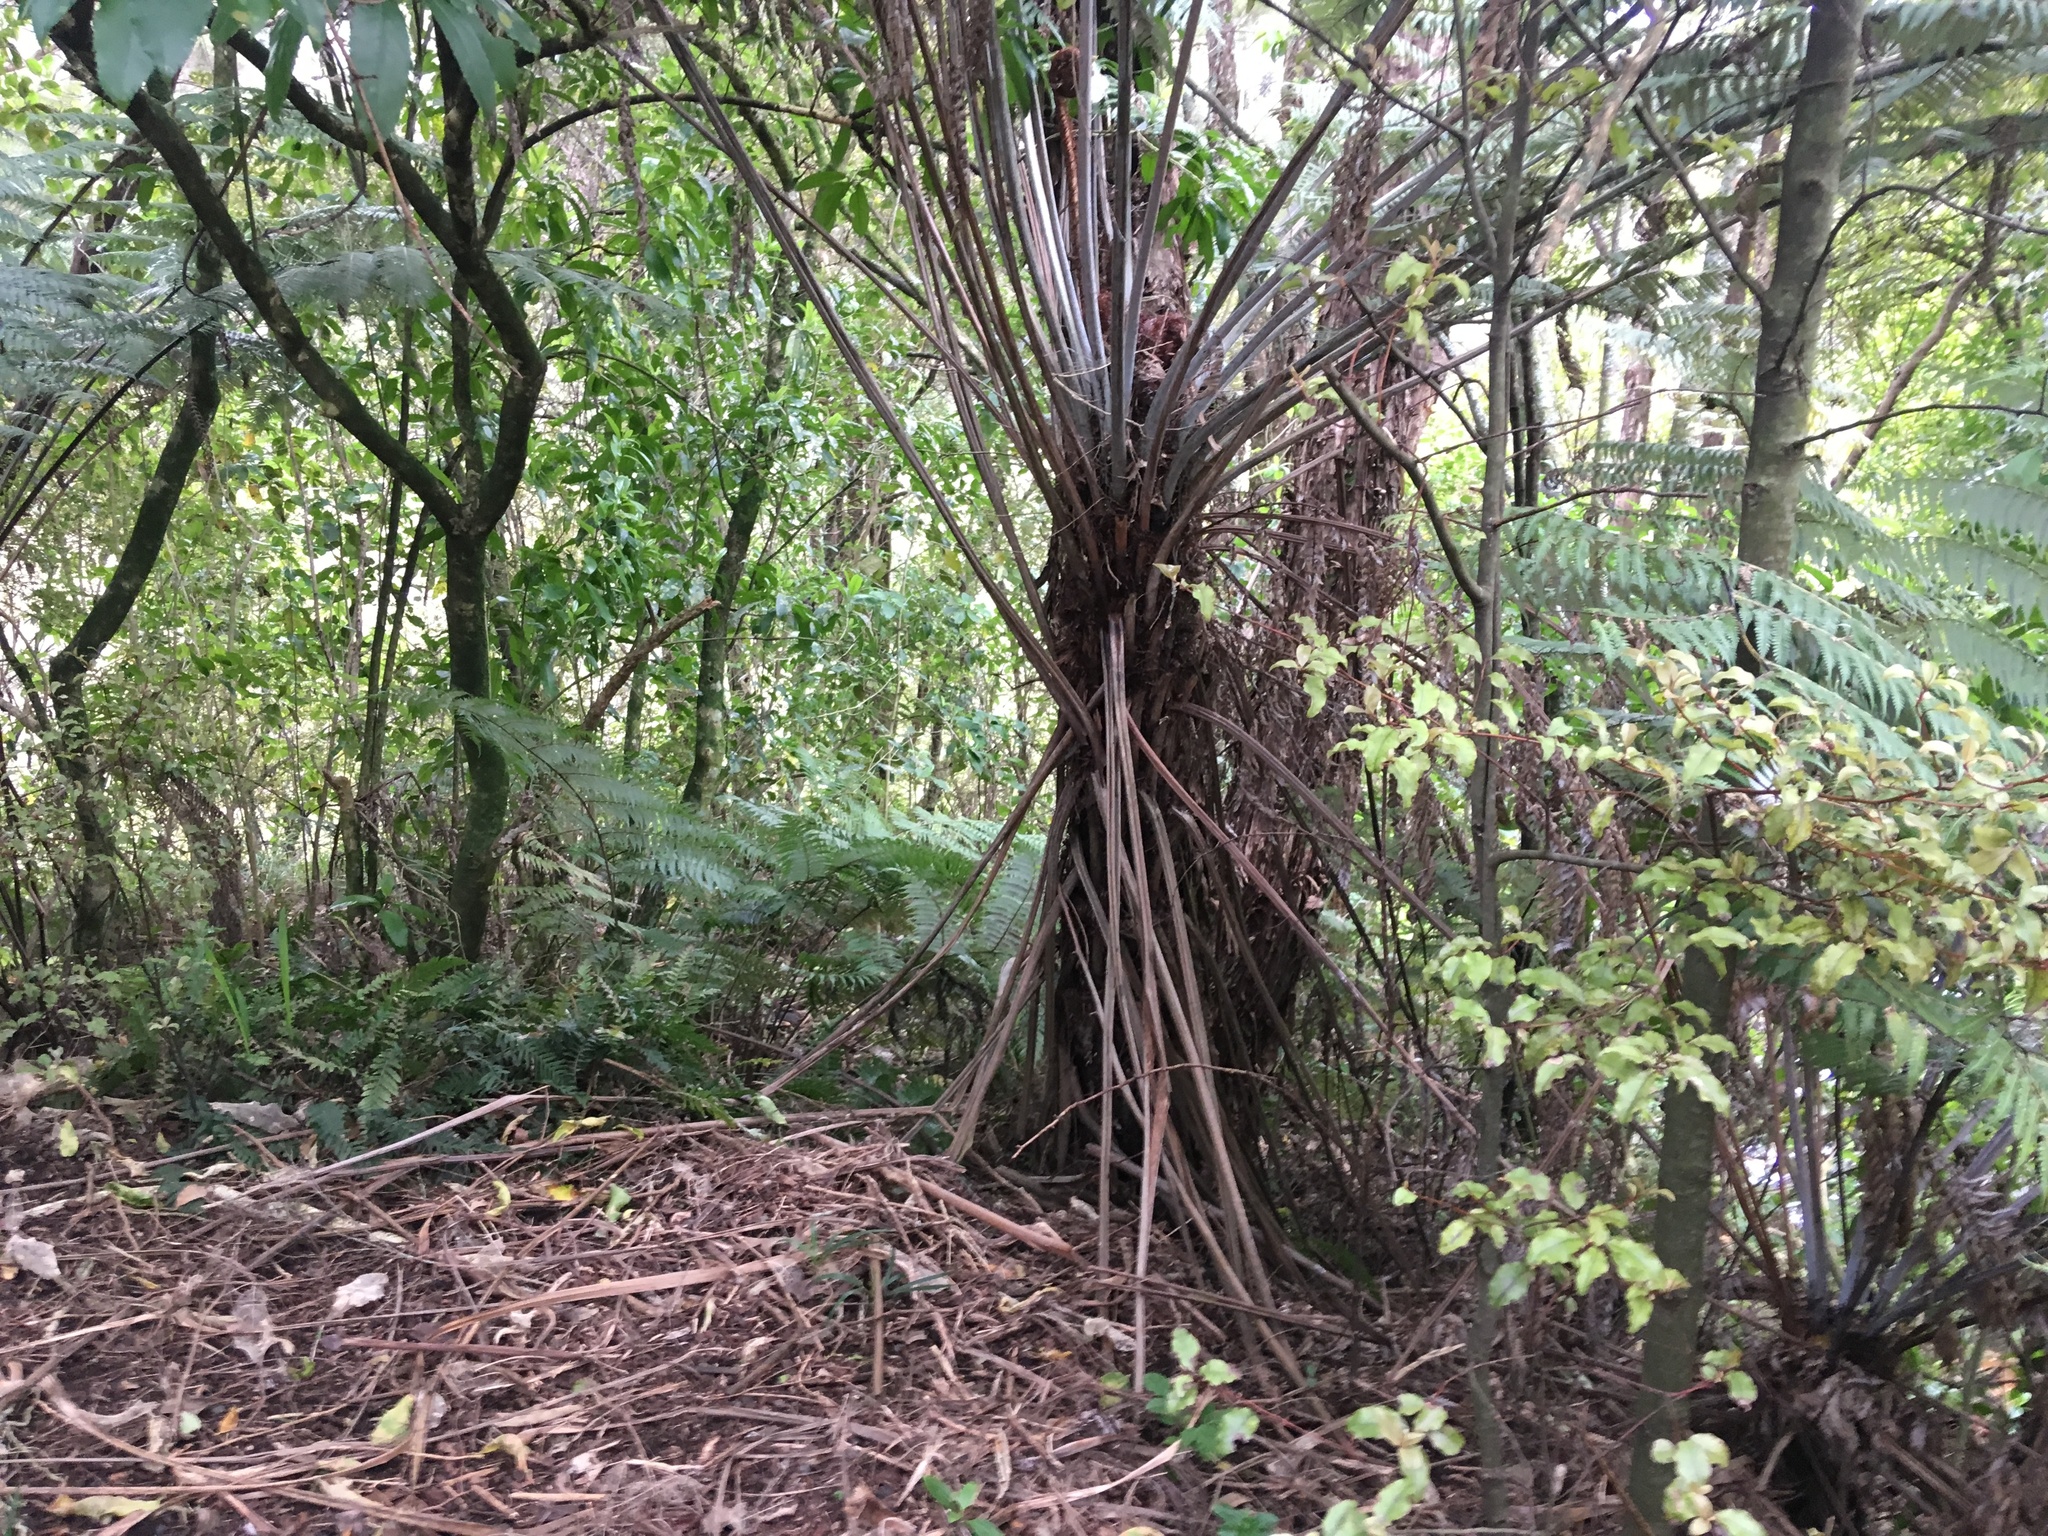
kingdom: Plantae
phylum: Tracheophyta
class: Magnoliopsida
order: Ericales
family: Primulaceae
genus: Myrsine
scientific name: Myrsine australis
